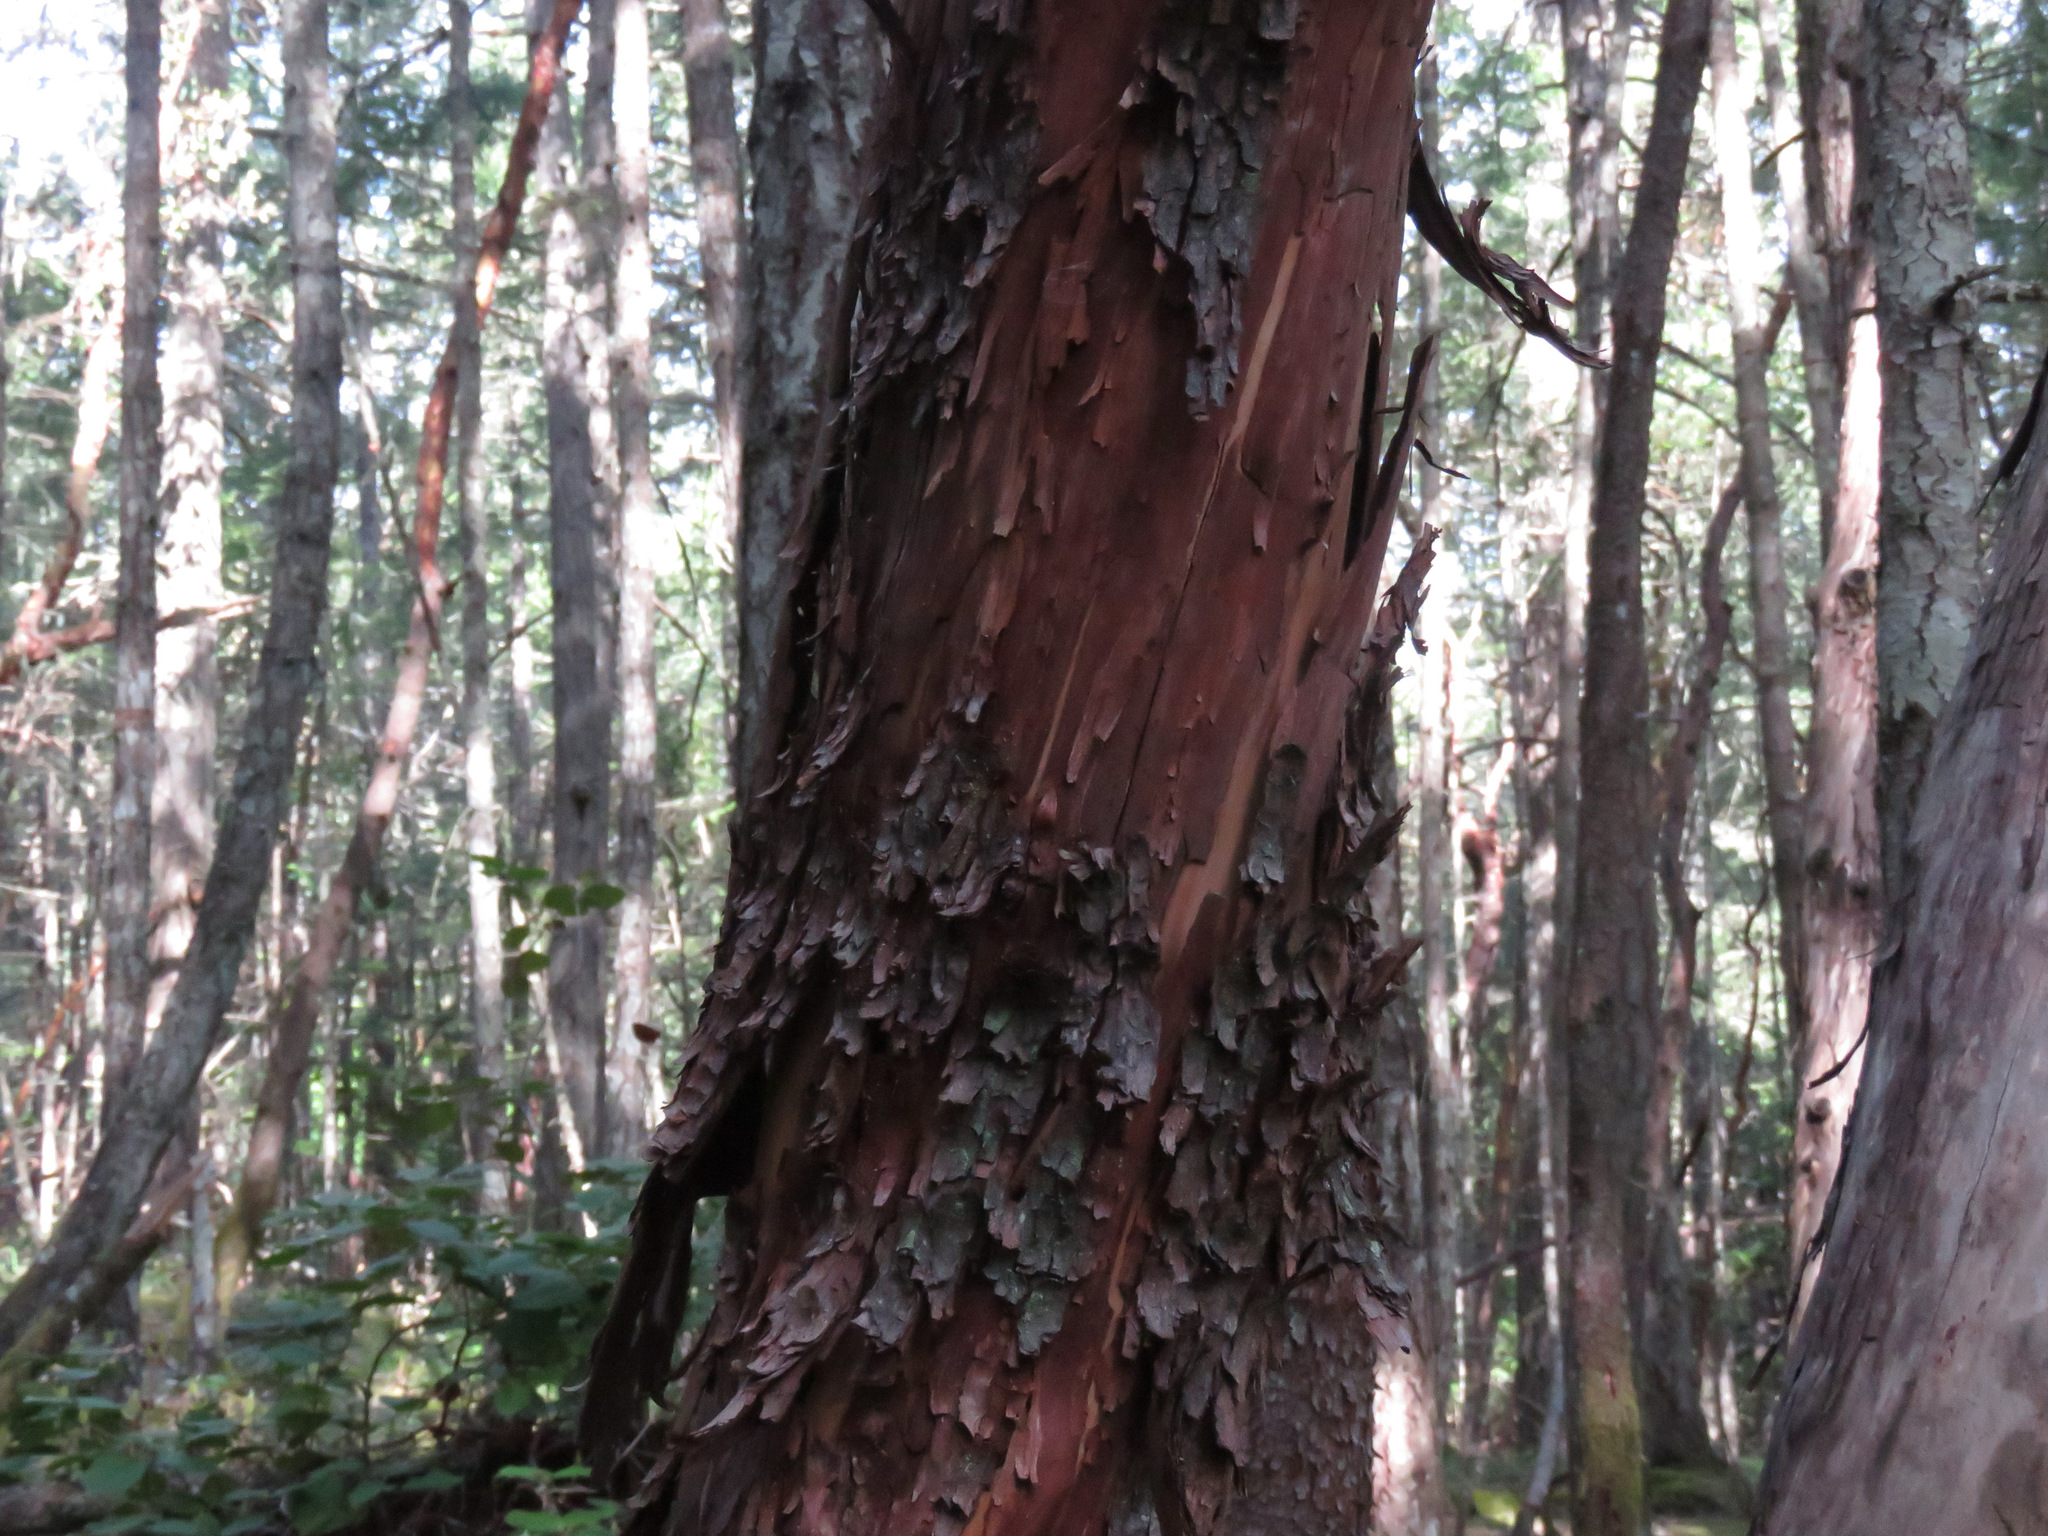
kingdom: Plantae
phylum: Tracheophyta
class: Magnoliopsida
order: Ericales
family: Ericaceae
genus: Arbutus
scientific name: Arbutus menziesii
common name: Pacific madrone
